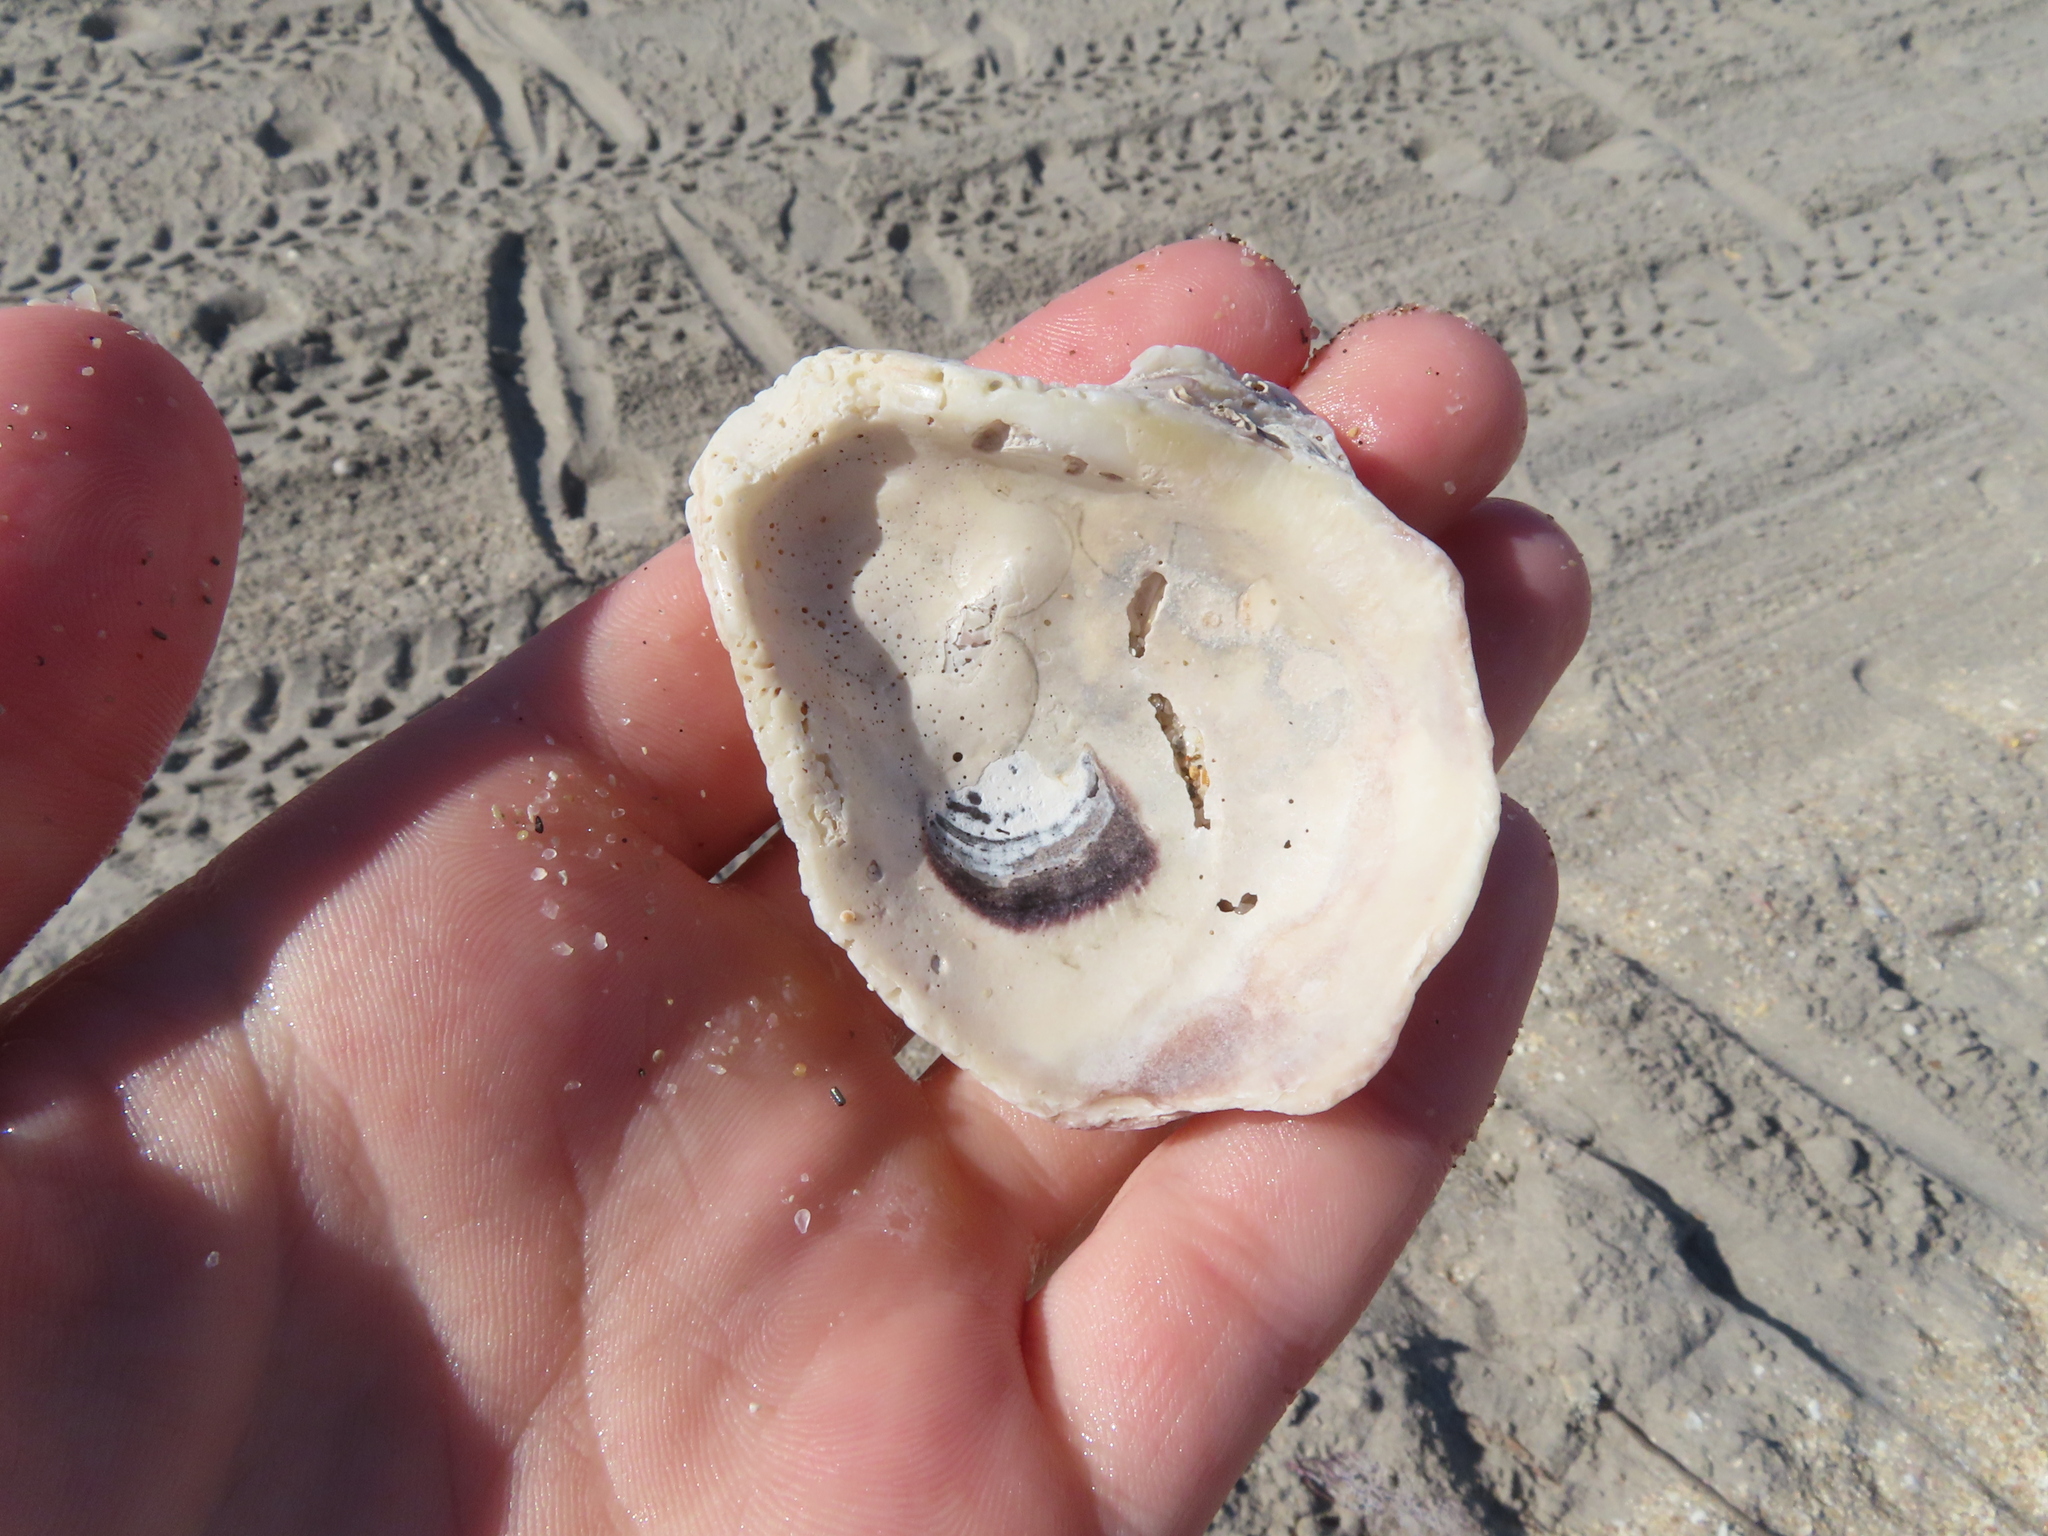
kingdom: Animalia
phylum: Mollusca
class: Bivalvia
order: Ostreida
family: Ostreidae
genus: Crassostrea
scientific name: Crassostrea virginica
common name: American oyster
